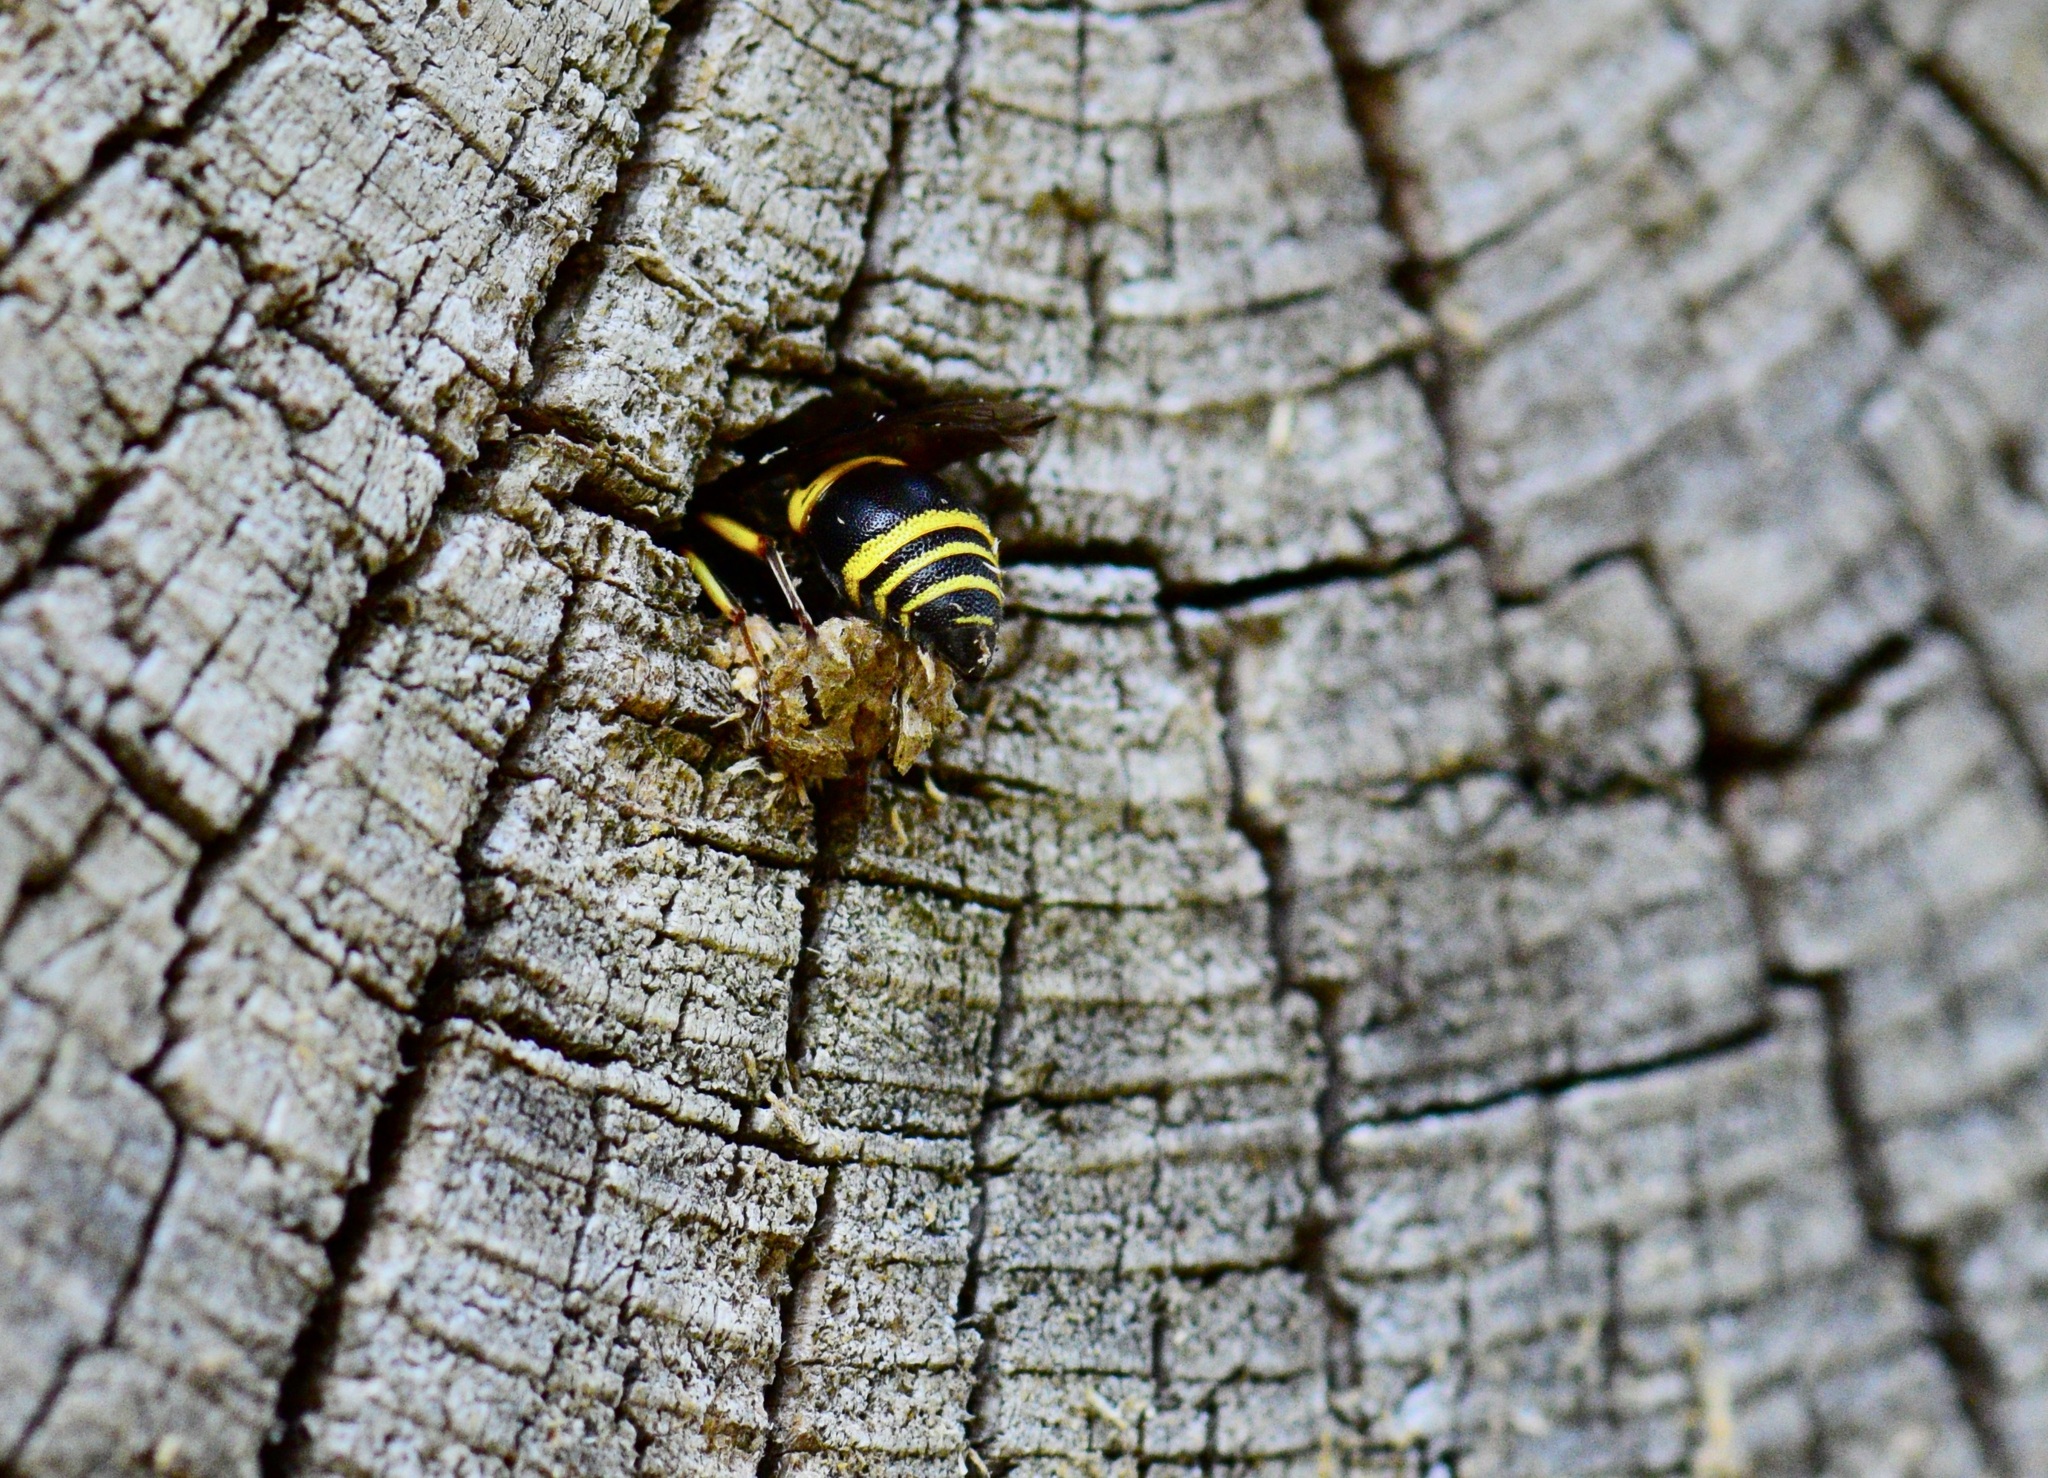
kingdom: Animalia
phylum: Arthropoda
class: Insecta
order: Hymenoptera
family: Eumenidae
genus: Euodynerus
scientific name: Euodynerus foraminatus
